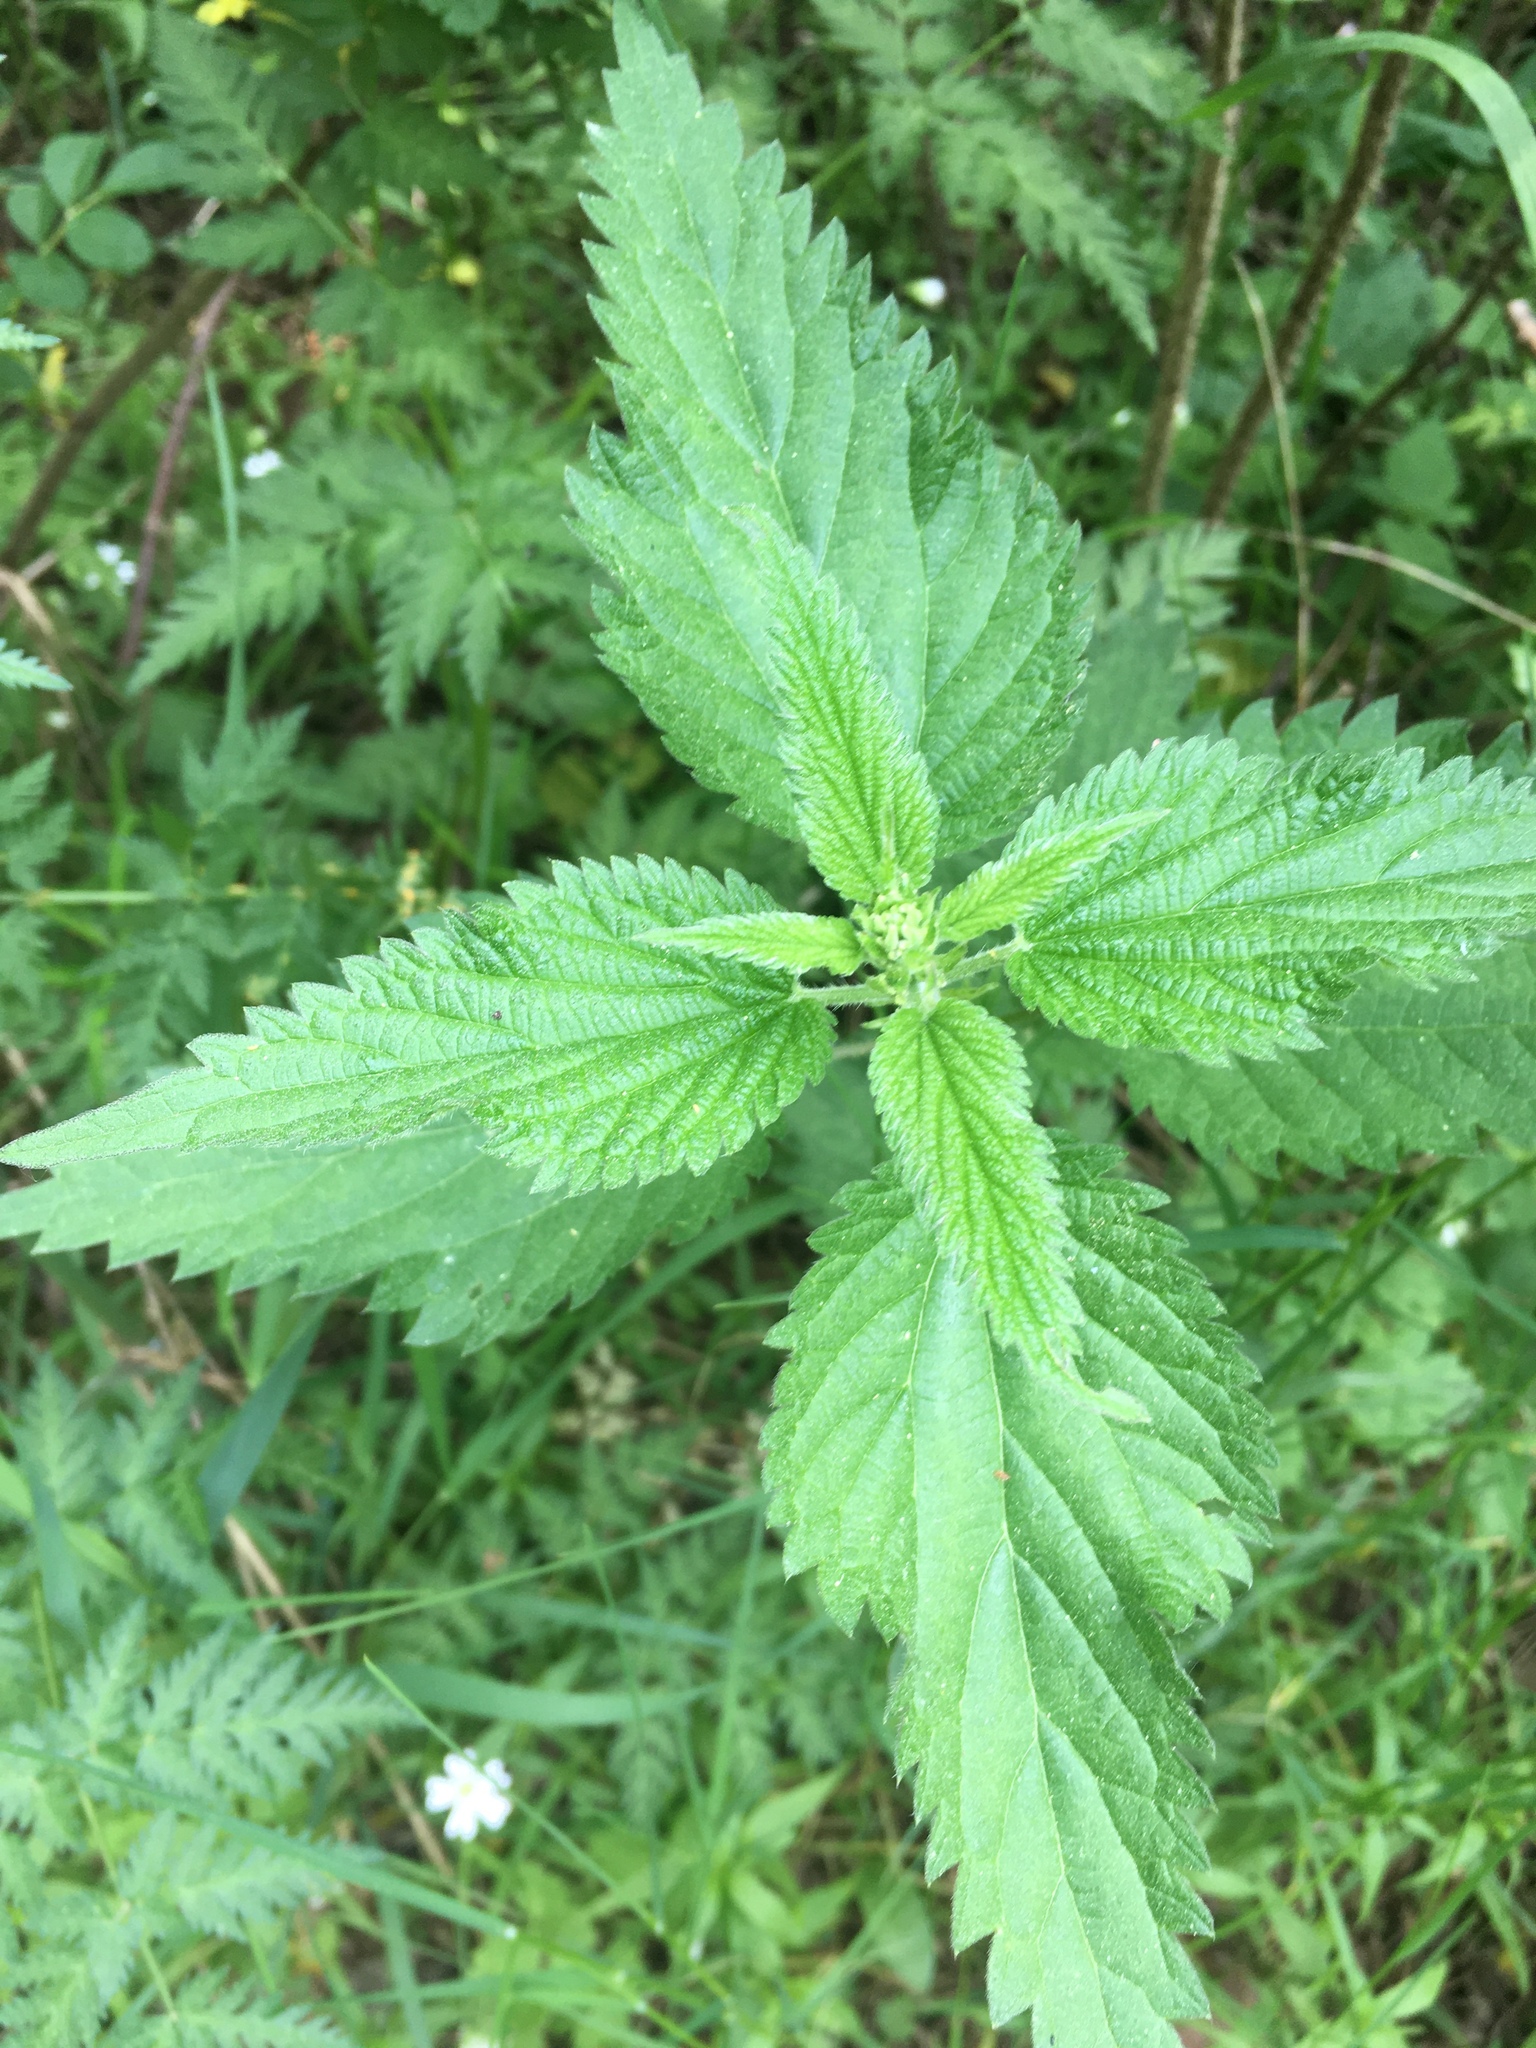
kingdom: Plantae
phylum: Tracheophyta
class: Magnoliopsida
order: Rosales
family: Urticaceae
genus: Urtica
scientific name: Urtica dioica
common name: Common nettle
